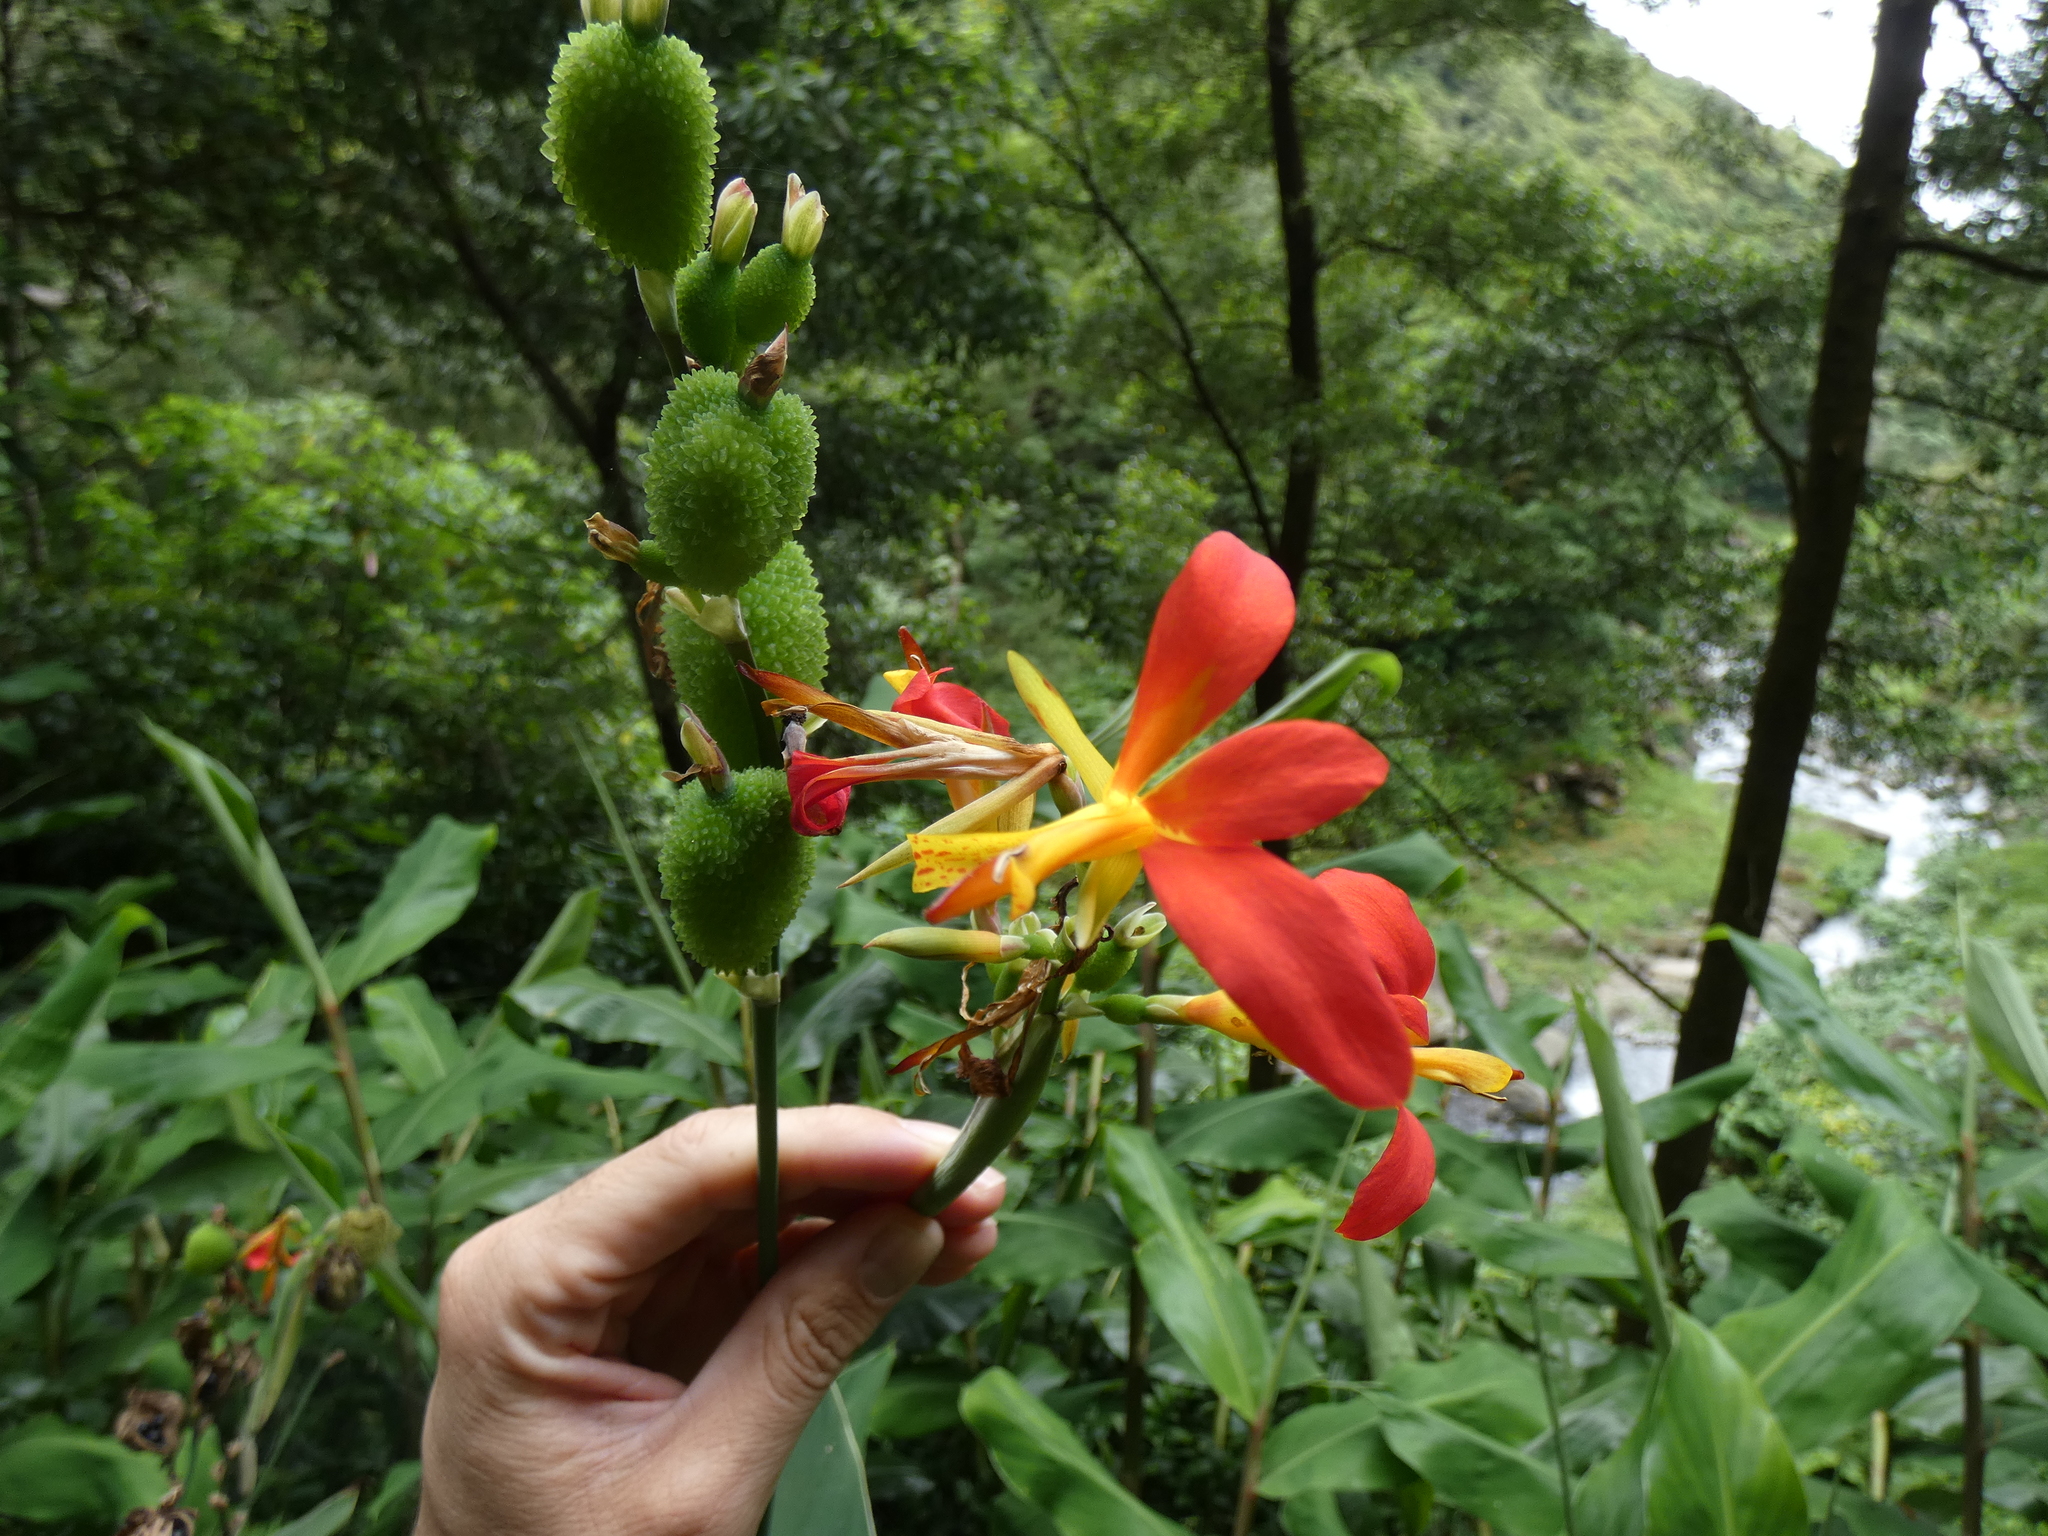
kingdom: Plantae
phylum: Tracheophyta
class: Liliopsida
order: Zingiberales
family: Cannaceae
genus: Canna
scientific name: Canna indica
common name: Indian shot
